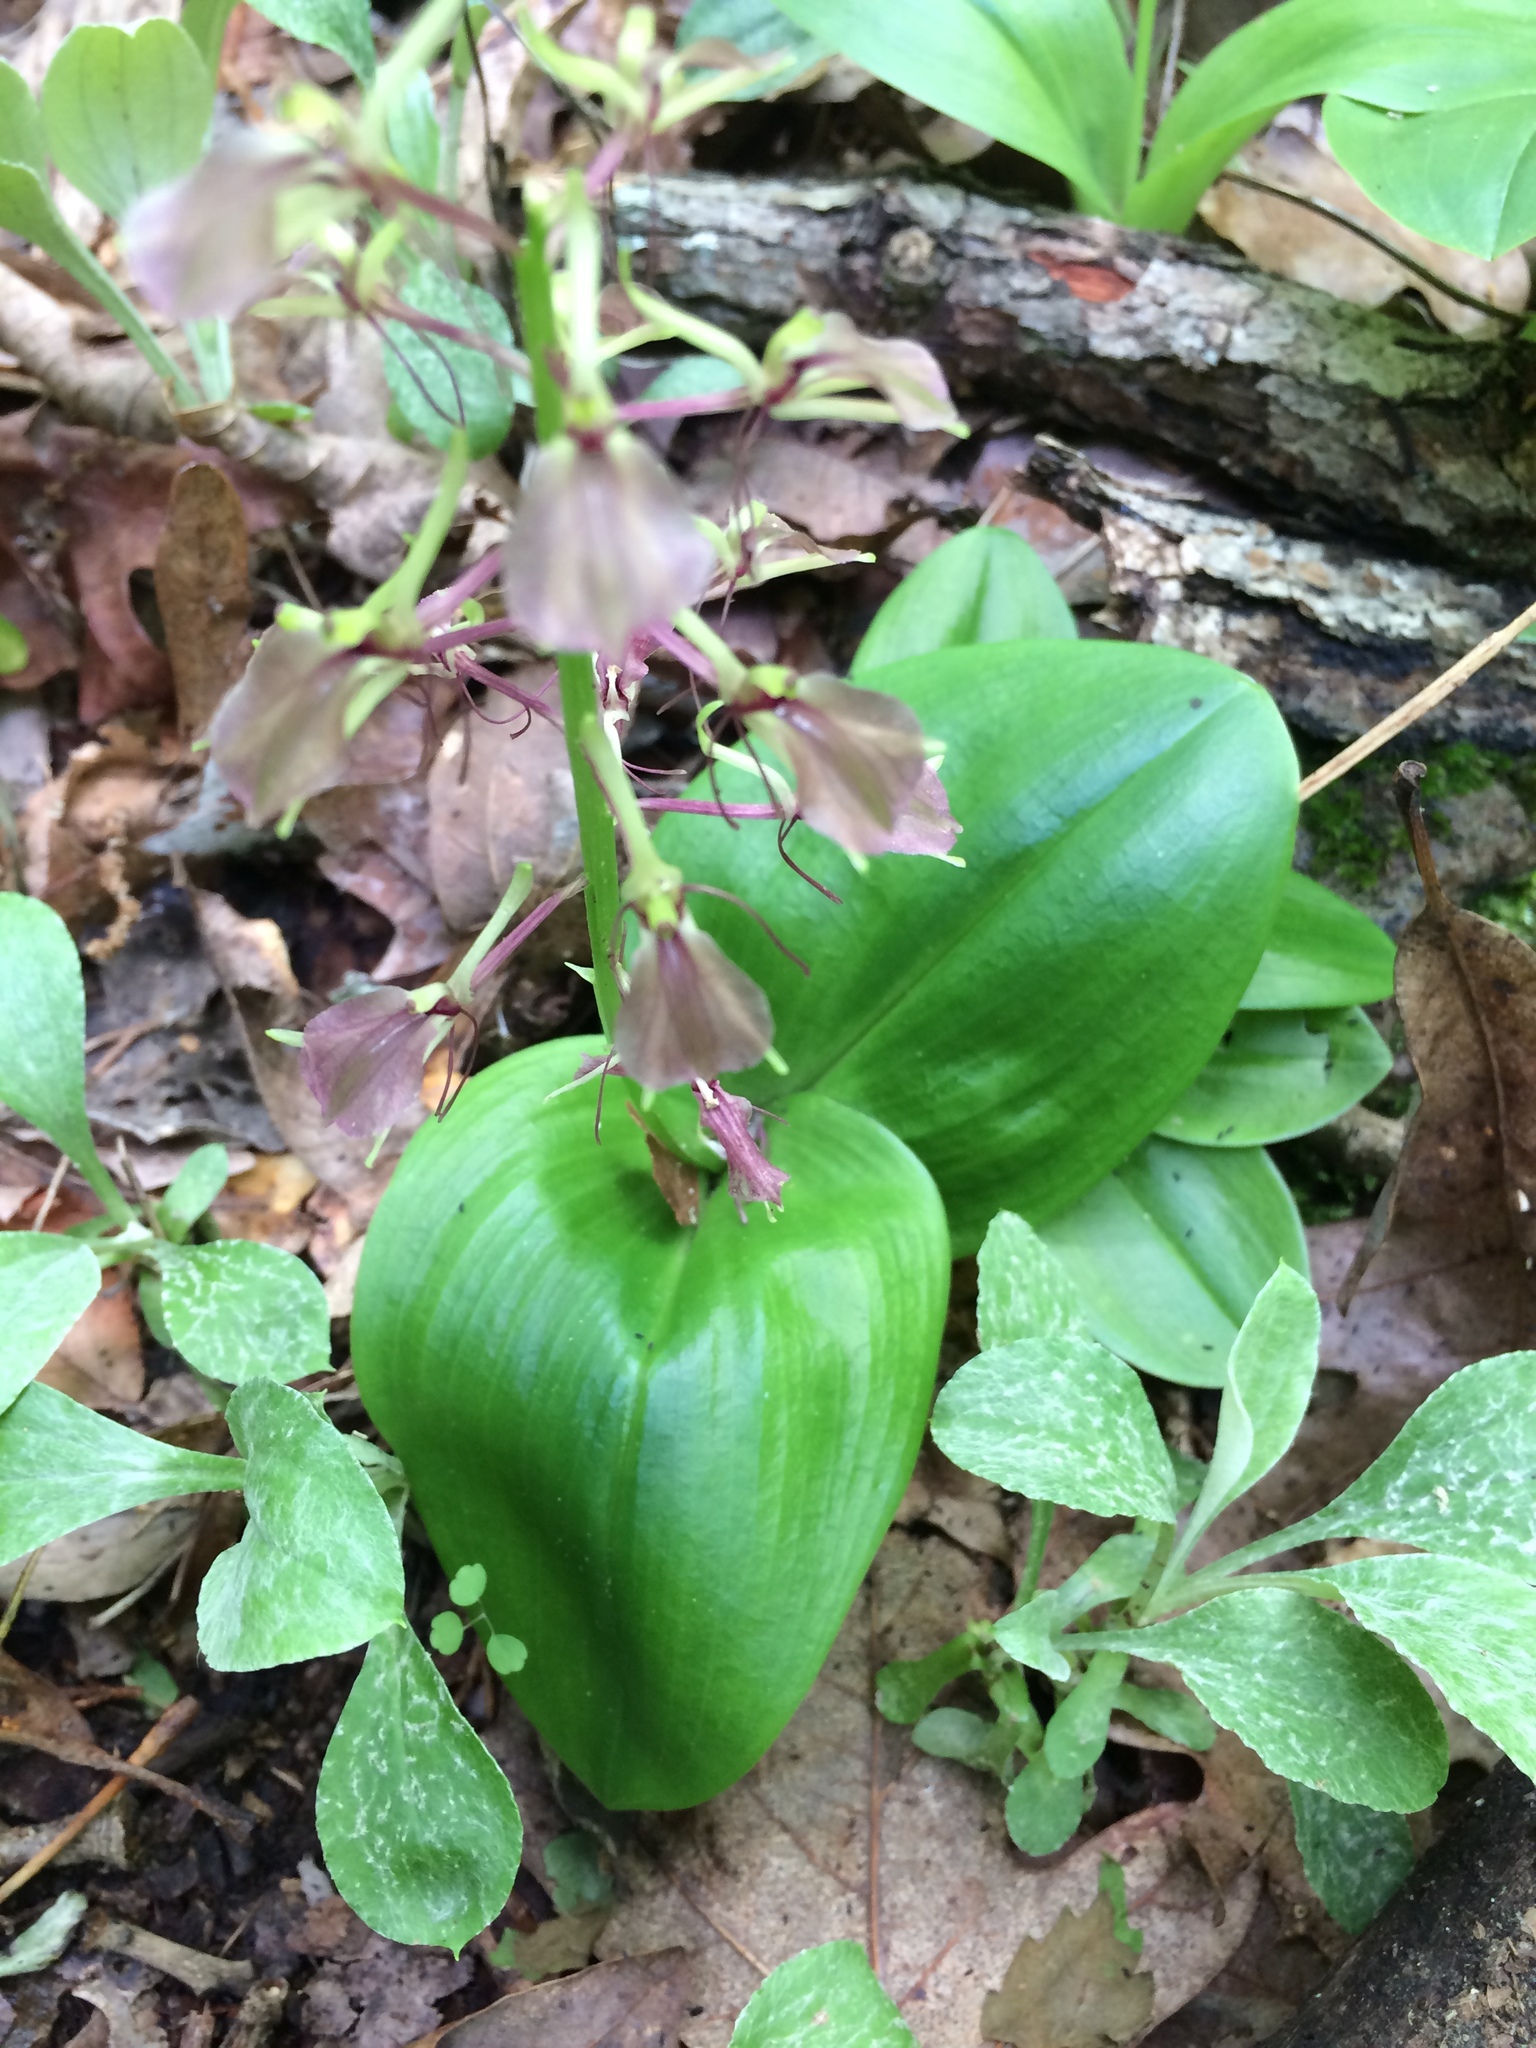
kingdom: Plantae
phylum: Tracheophyta
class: Liliopsida
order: Asparagales
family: Orchidaceae
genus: Liparis
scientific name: Liparis liliifolia
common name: Brown wide-lip orchid
